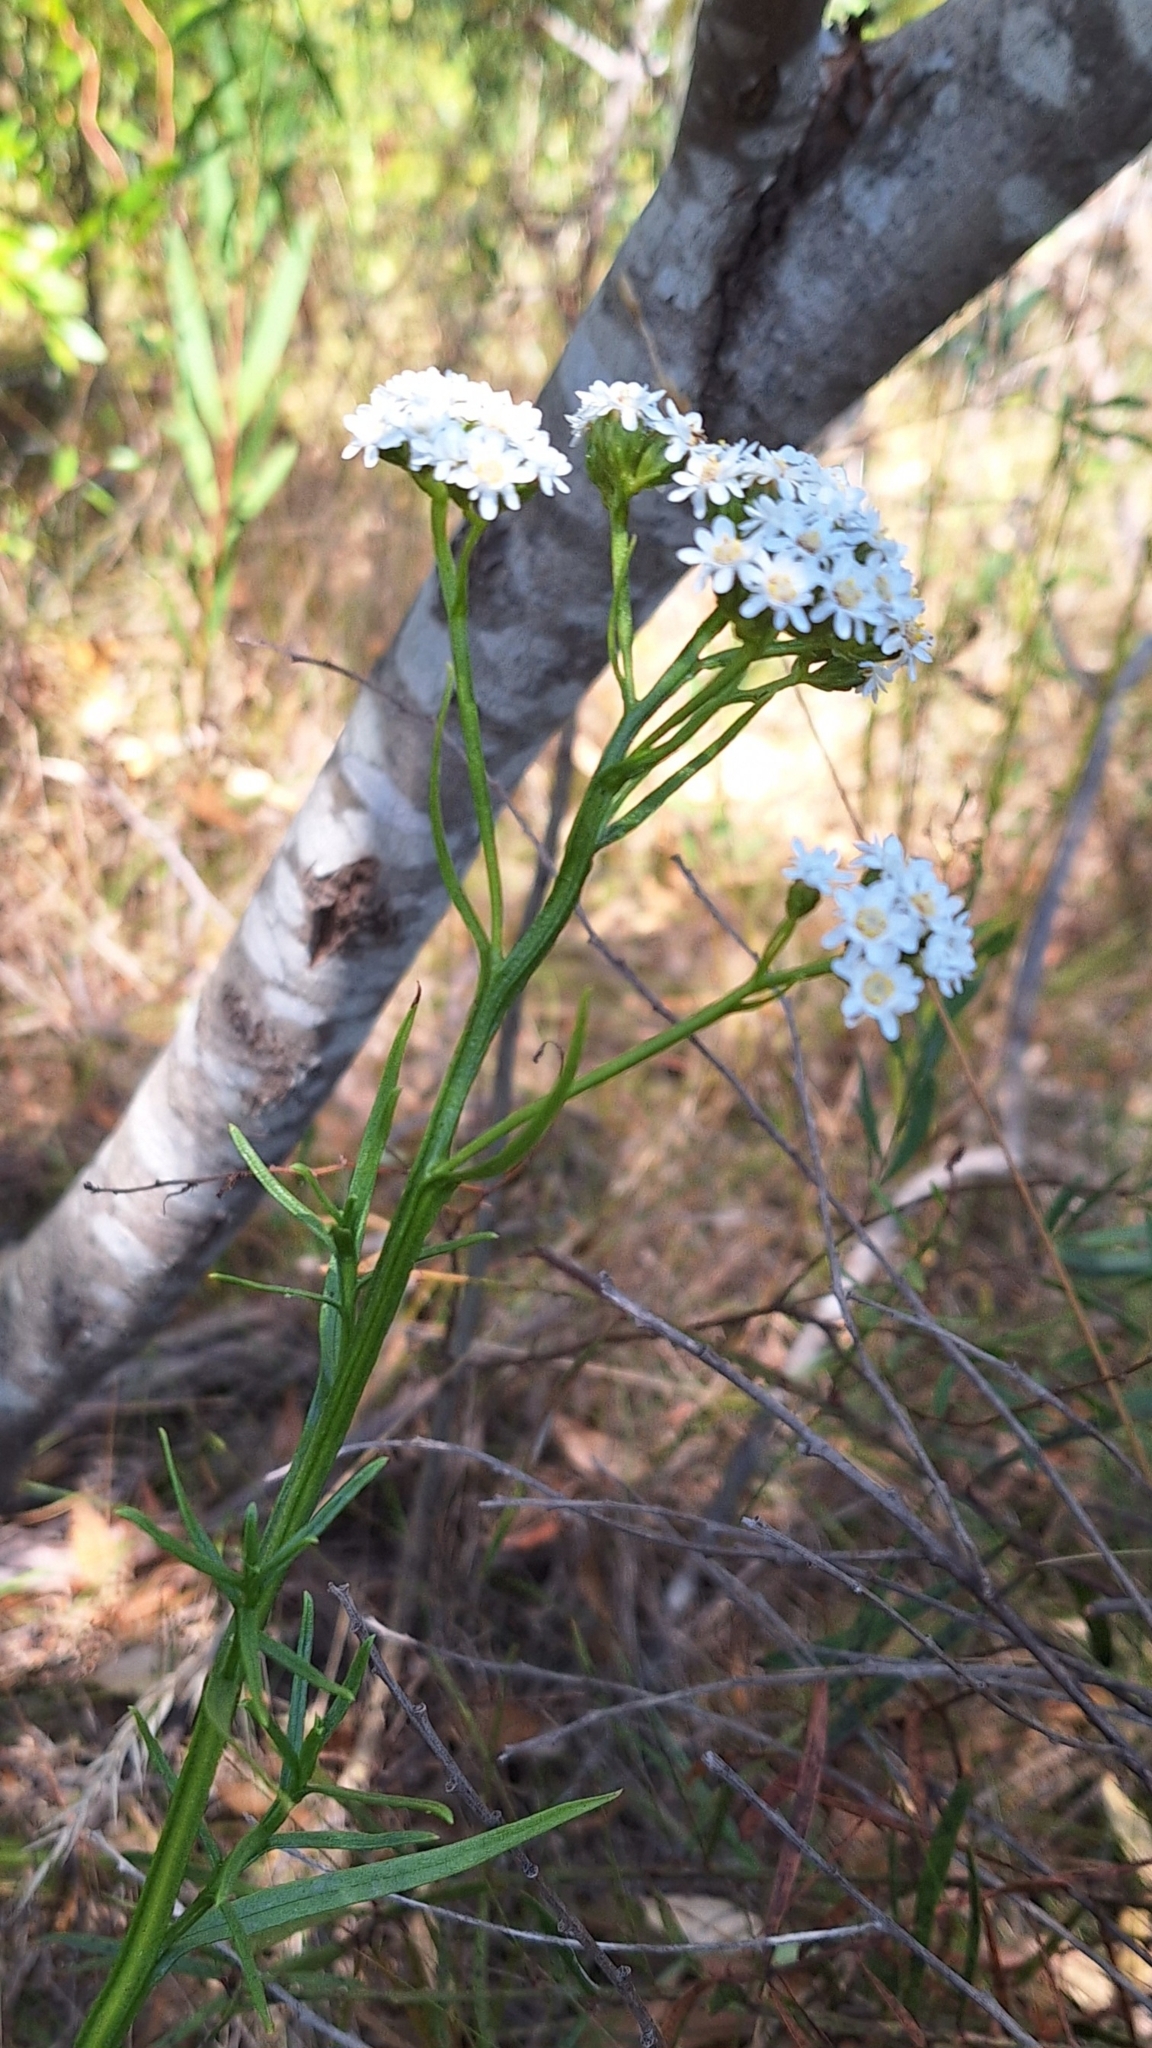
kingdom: Plantae
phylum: Tracheophyta
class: Magnoliopsida
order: Asterales
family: Asteraceae
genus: Ixodia
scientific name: Ixodia achillaeoides
